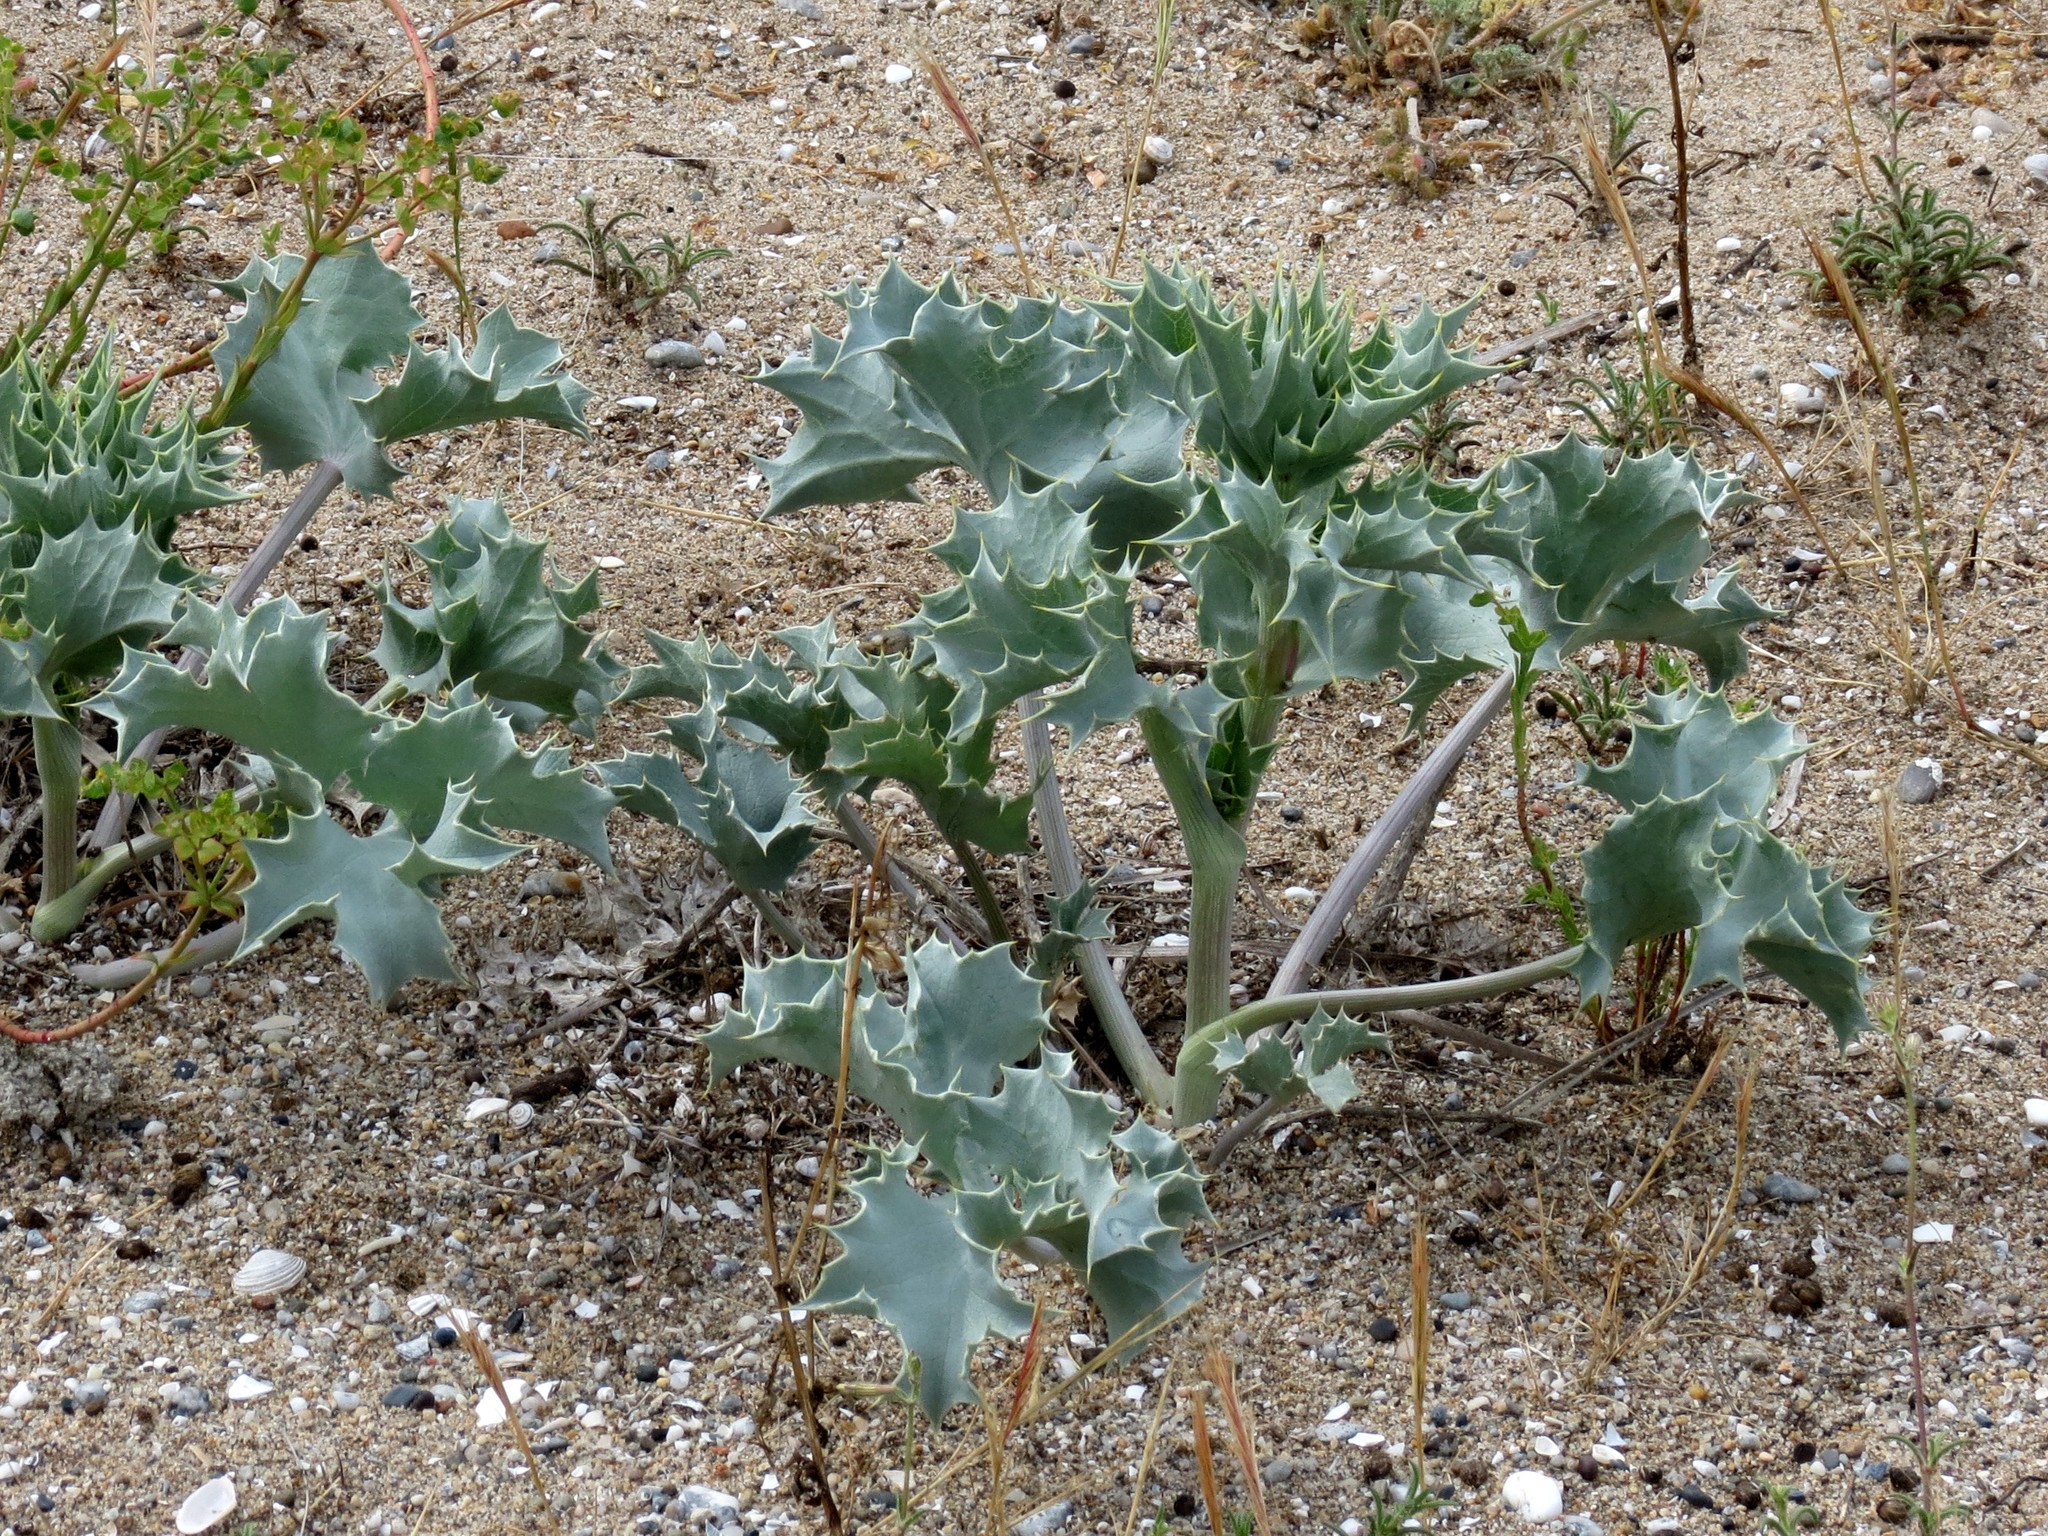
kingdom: Plantae
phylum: Tracheophyta
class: Magnoliopsida
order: Apiales
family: Apiaceae
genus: Eryngium
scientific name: Eryngium maritimum
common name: Sea-holly
